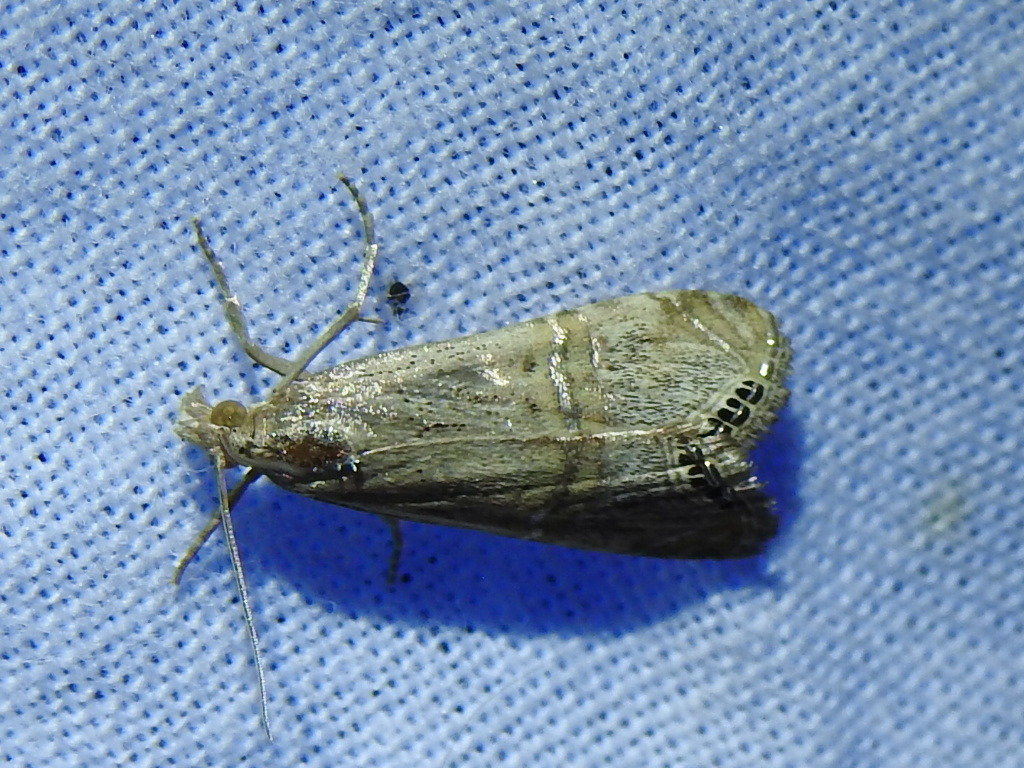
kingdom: Animalia
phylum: Arthropoda
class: Insecta
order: Lepidoptera
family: Crambidae
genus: Euchromius
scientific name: Euchromius ocellea
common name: Necklace veneer moth
